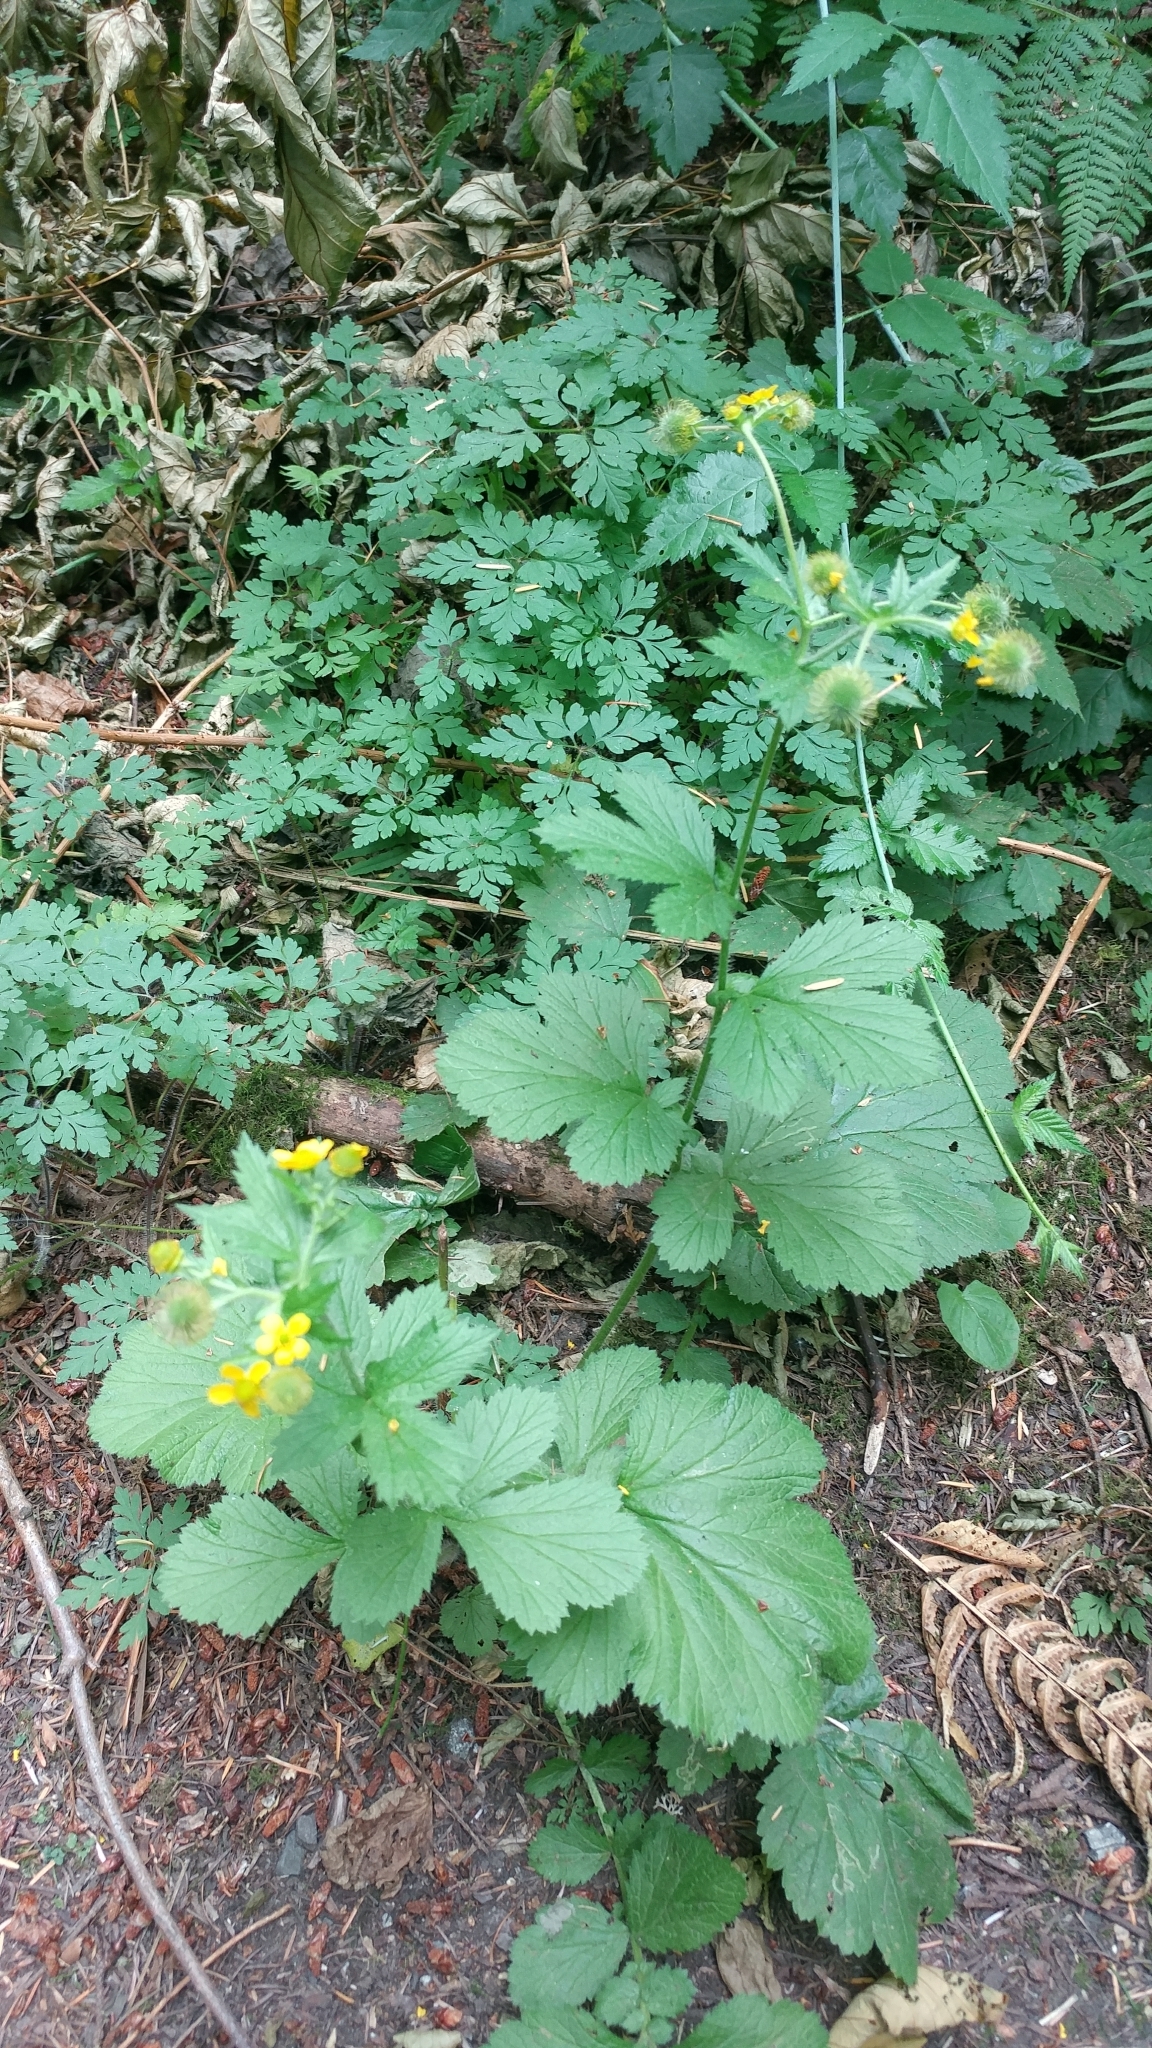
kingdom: Plantae
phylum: Tracheophyta
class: Magnoliopsida
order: Rosales
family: Rosaceae
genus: Geum
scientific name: Geum macrophyllum
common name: Large-leaved avens
